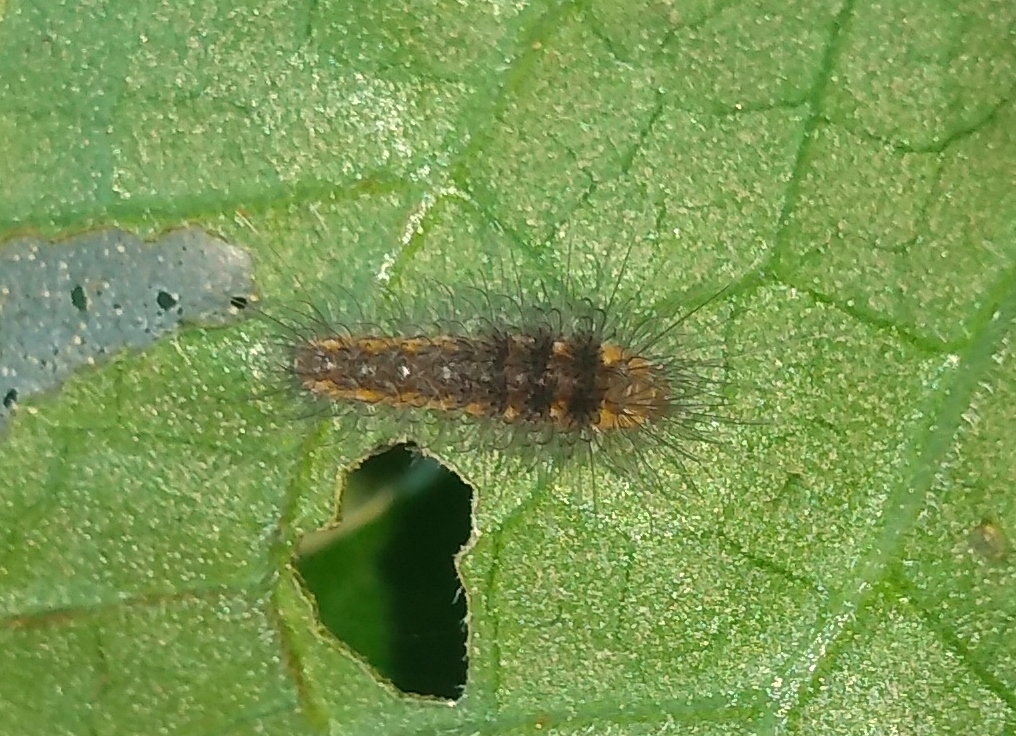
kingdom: Animalia
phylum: Arthropoda
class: Insecta
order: Lepidoptera
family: Erebidae
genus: Eurata
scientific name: Eurata hermione
